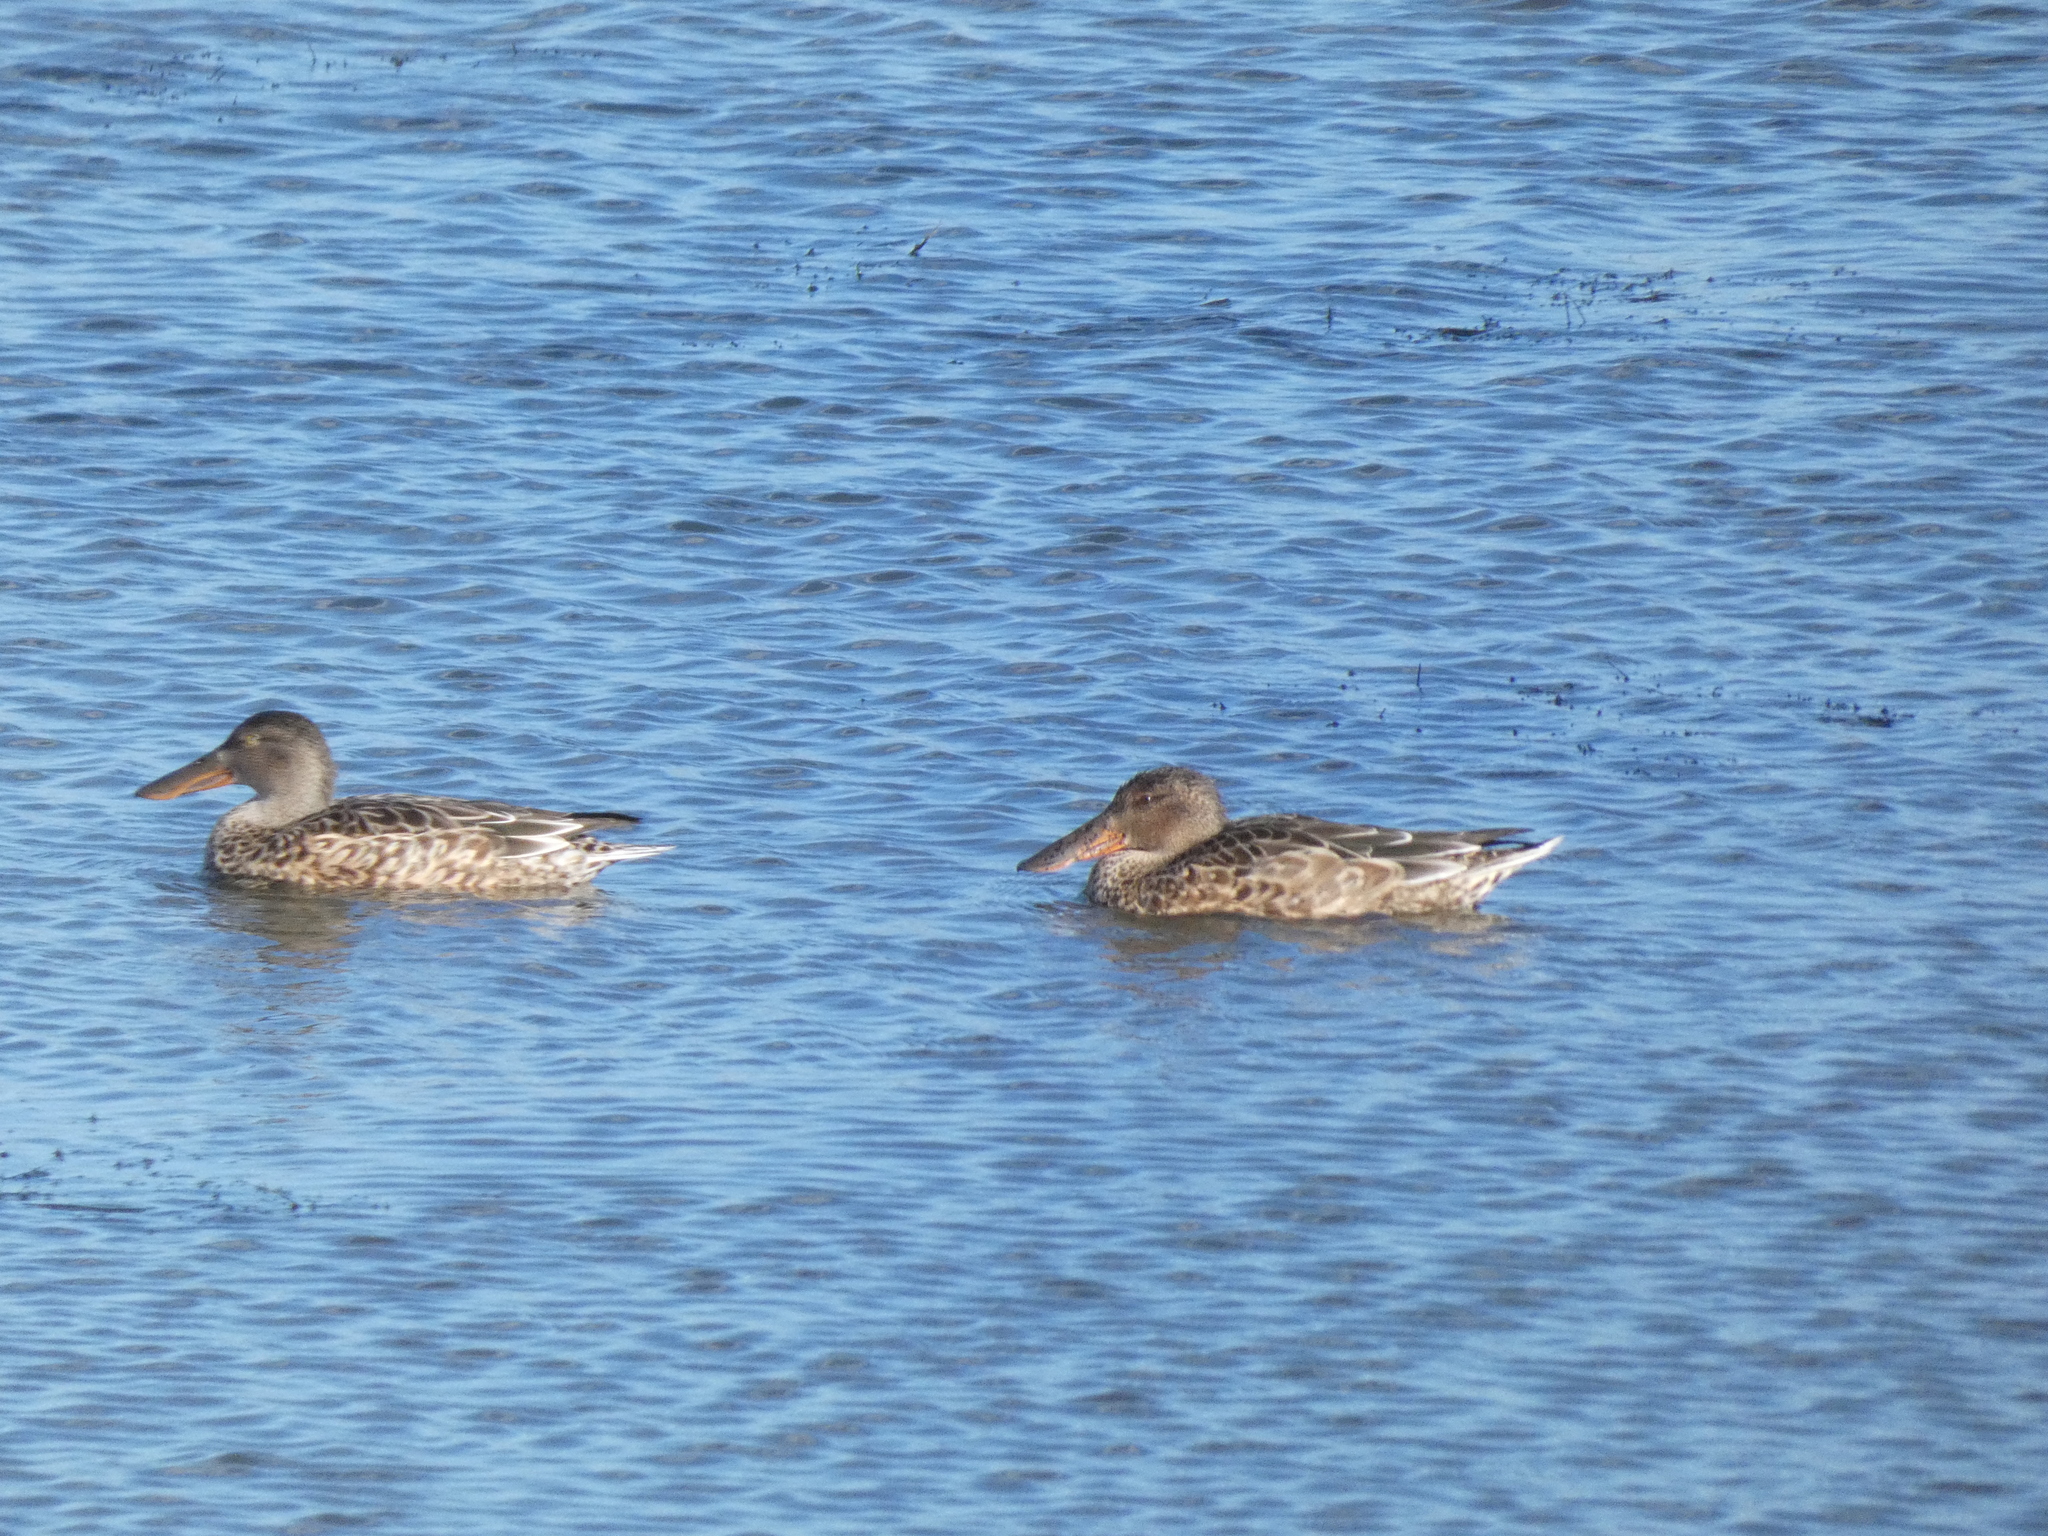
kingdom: Animalia
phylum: Chordata
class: Aves
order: Anseriformes
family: Anatidae
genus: Spatula
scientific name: Spatula clypeata
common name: Northern shoveler
